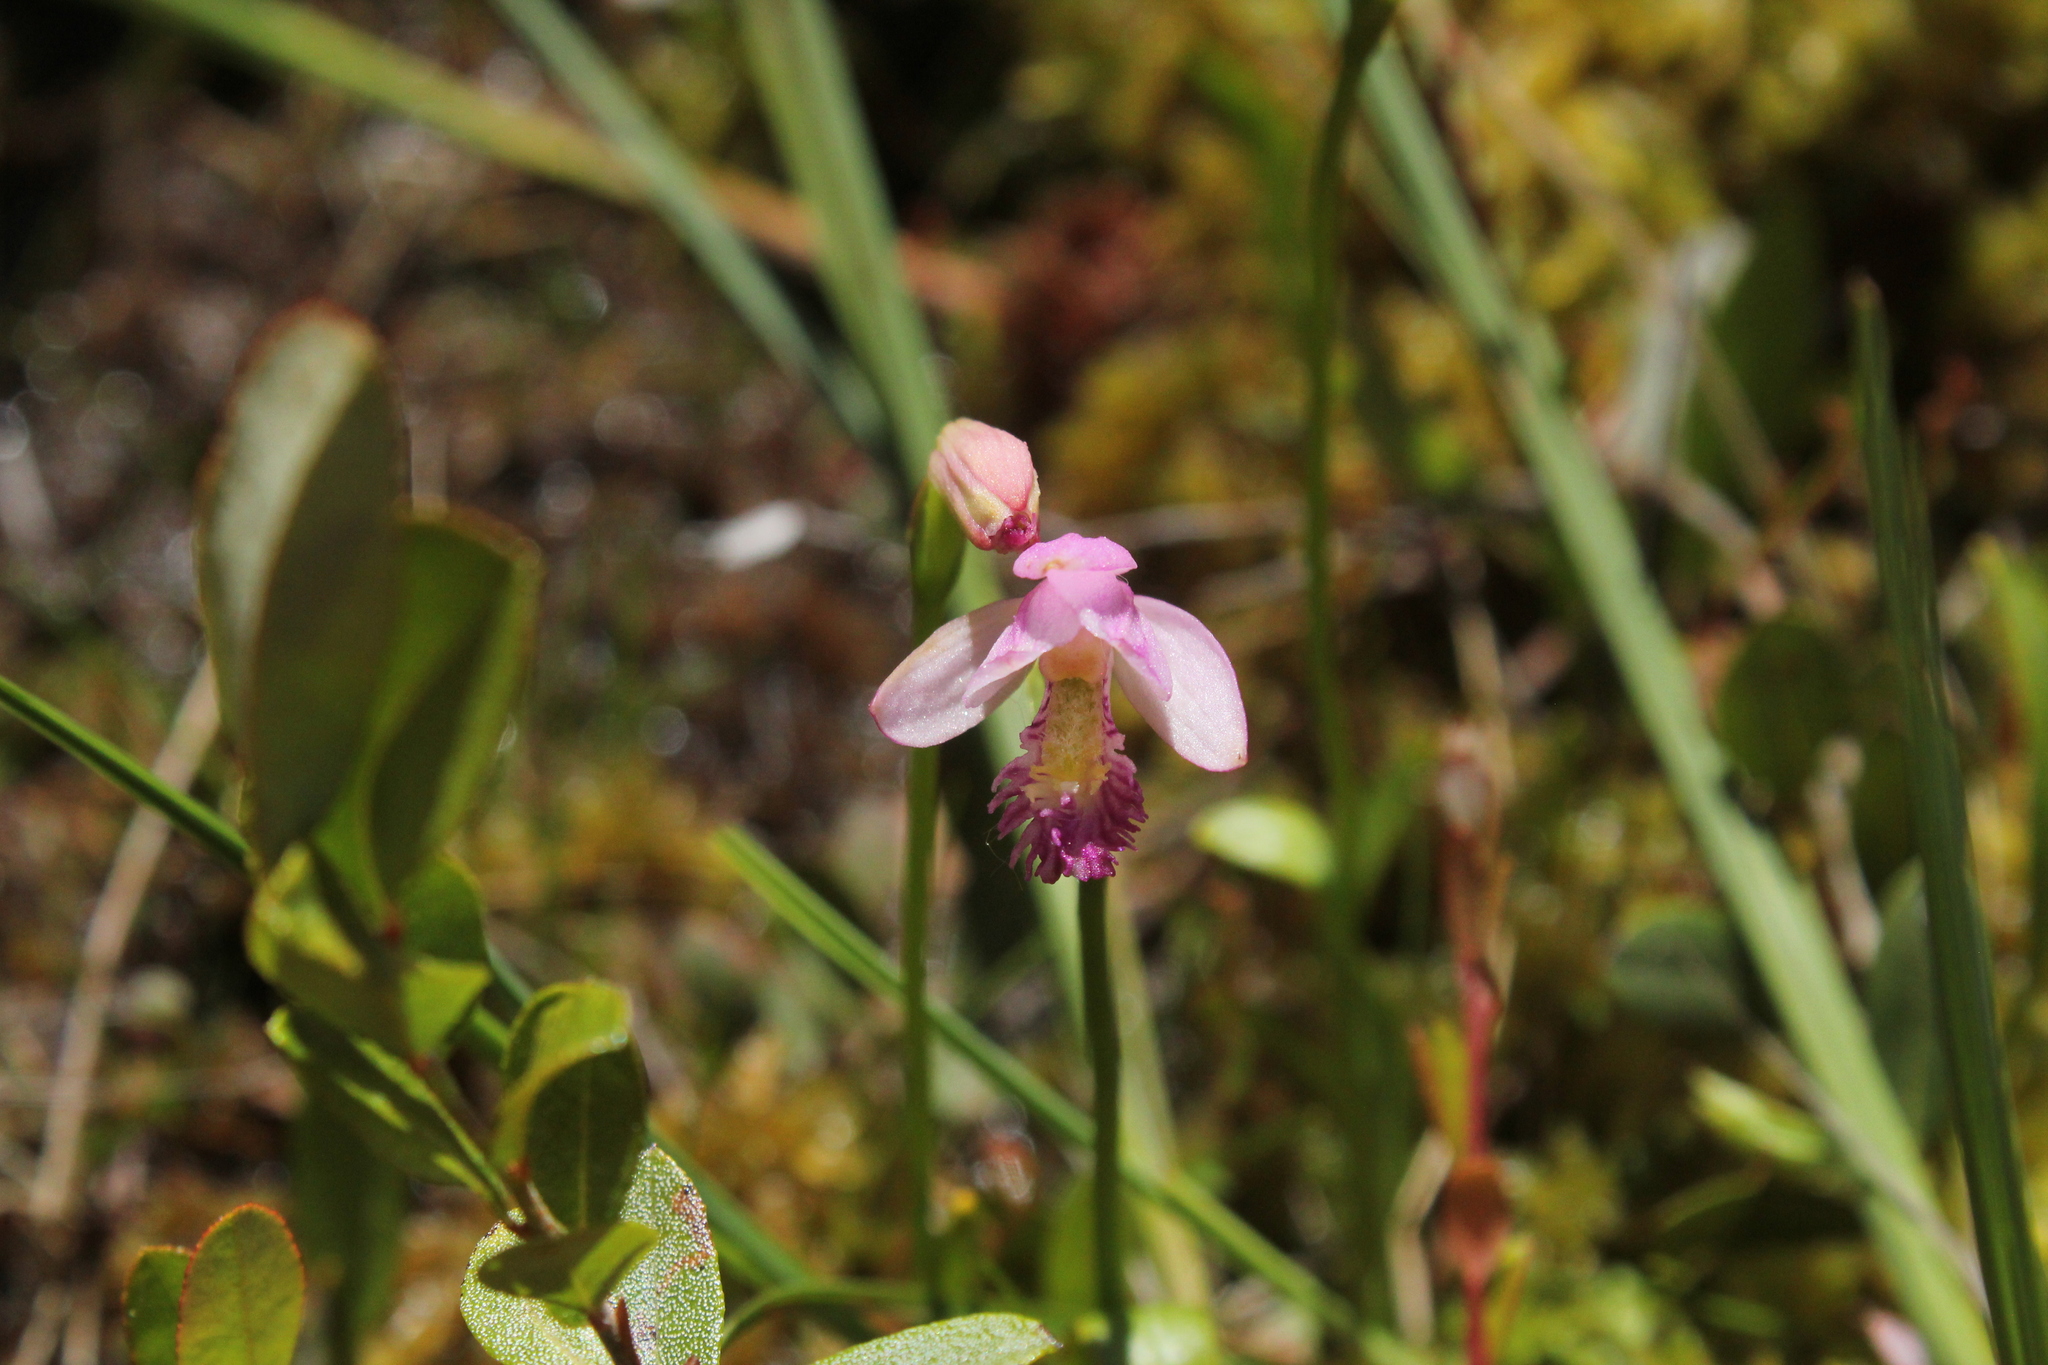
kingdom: Plantae
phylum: Tracheophyta
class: Liliopsida
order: Asparagales
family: Orchidaceae
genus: Pogonia
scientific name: Pogonia ophioglossoides
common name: Rose pogonia
